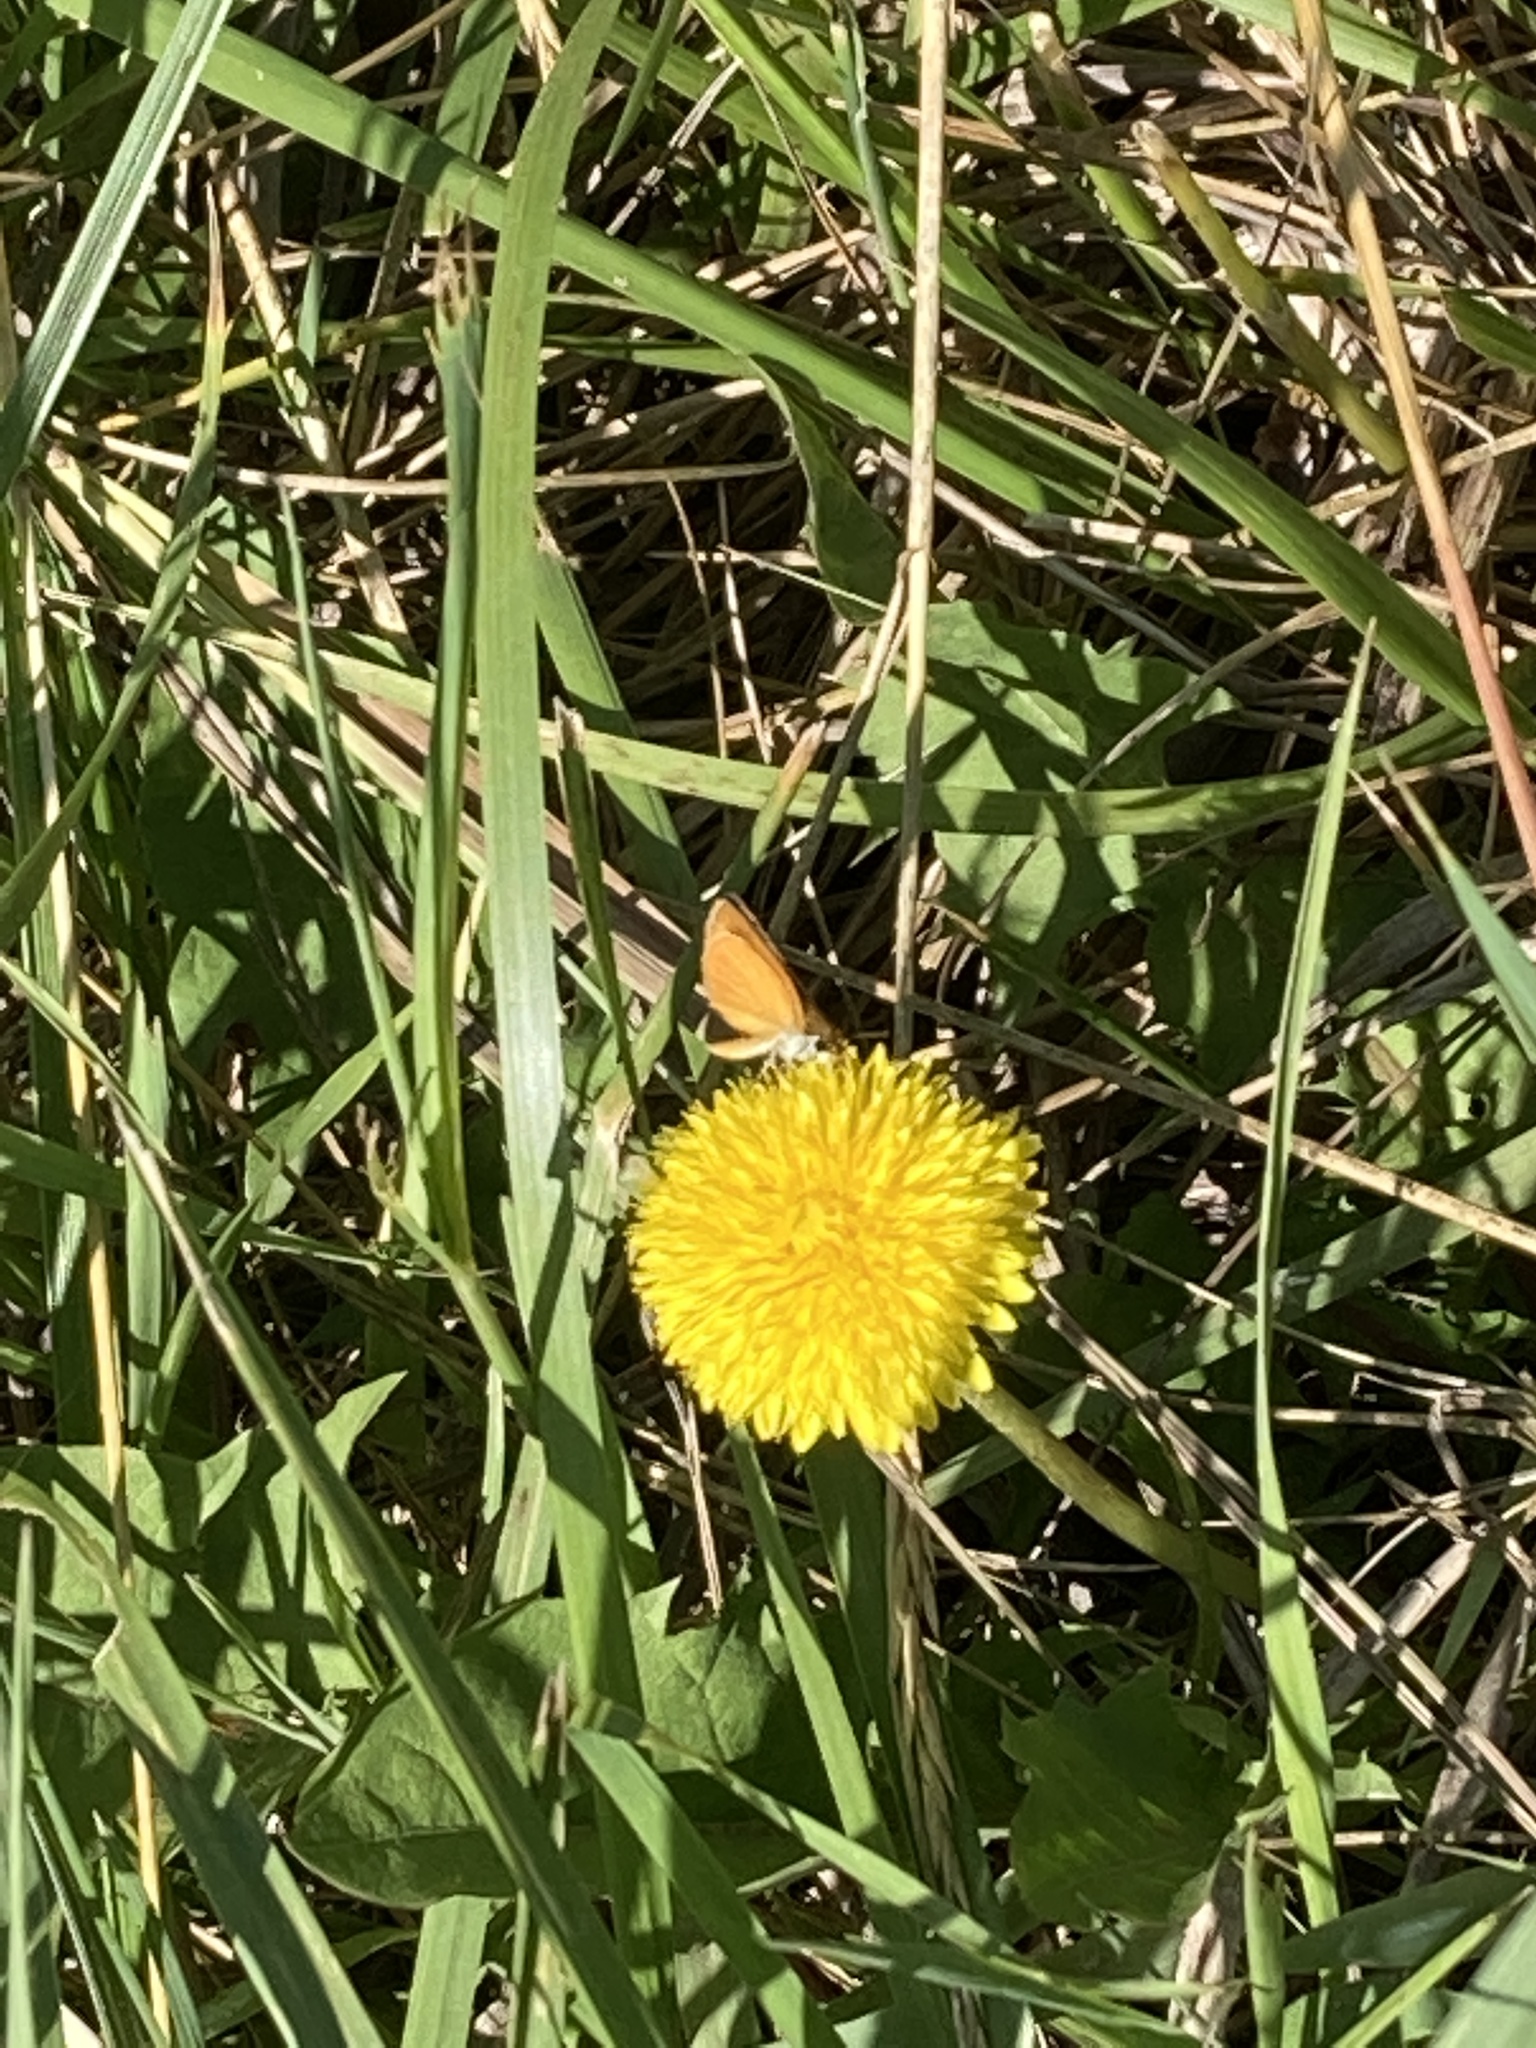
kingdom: Animalia
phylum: Arthropoda
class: Insecta
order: Lepidoptera
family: Hesperiidae
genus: Ancyloxypha
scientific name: Ancyloxypha numitor
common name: Least skipper
